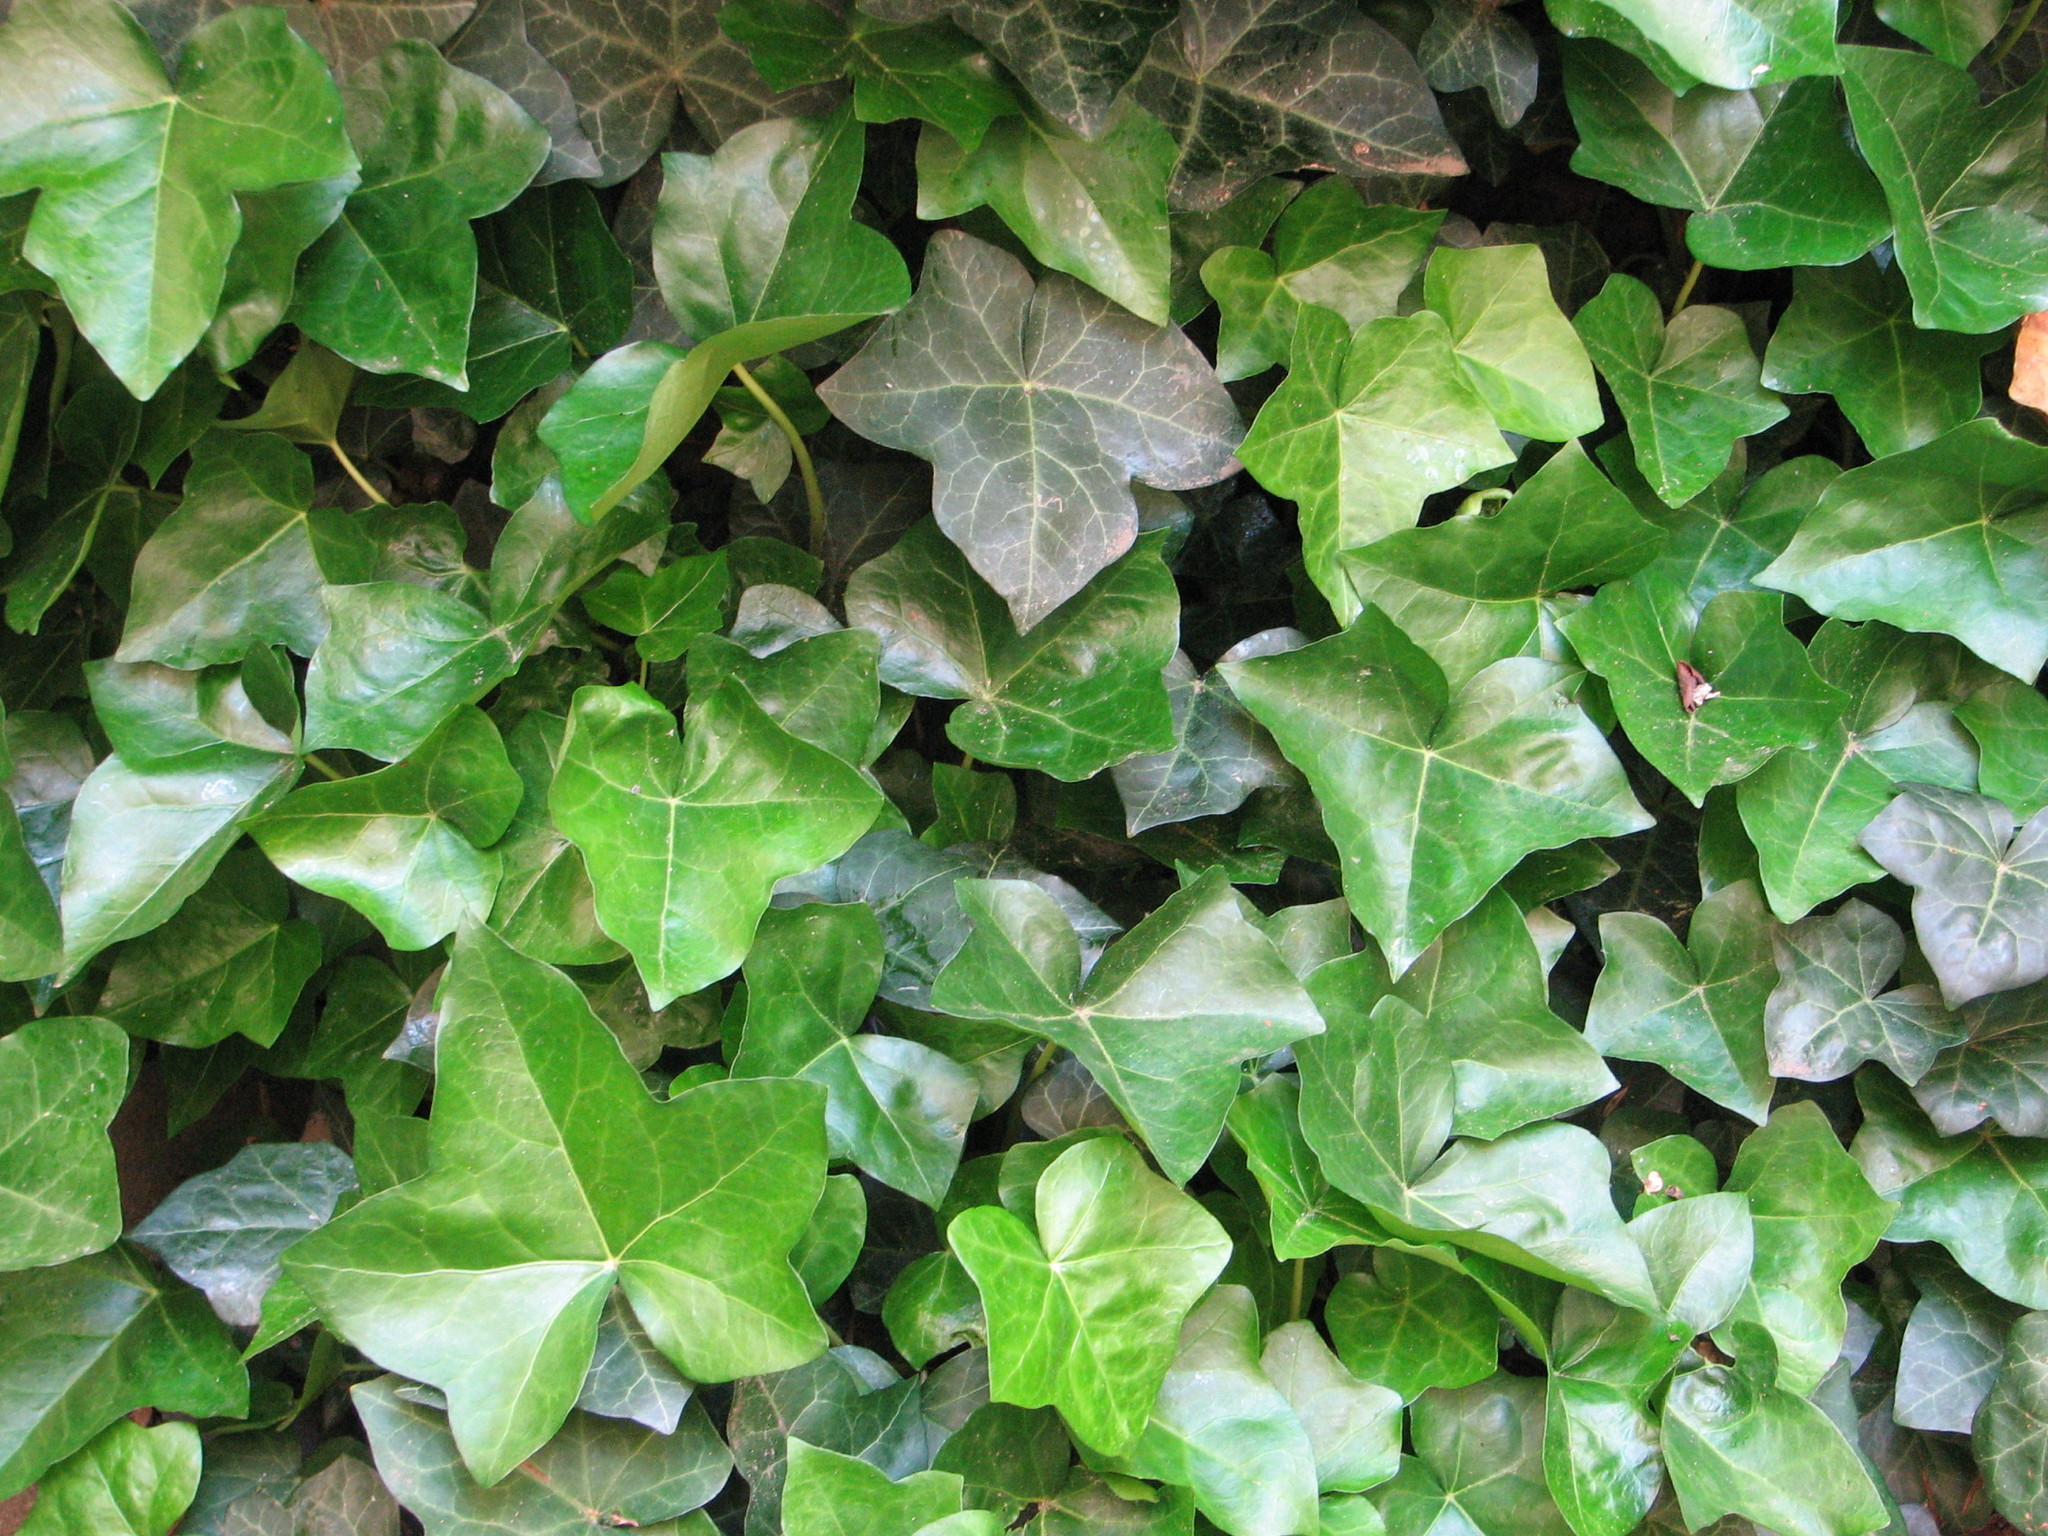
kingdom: Plantae
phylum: Tracheophyta
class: Magnoliopsida
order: Apiales
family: Araliaceae
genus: Hedera
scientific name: Hedera helix
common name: Ivy
